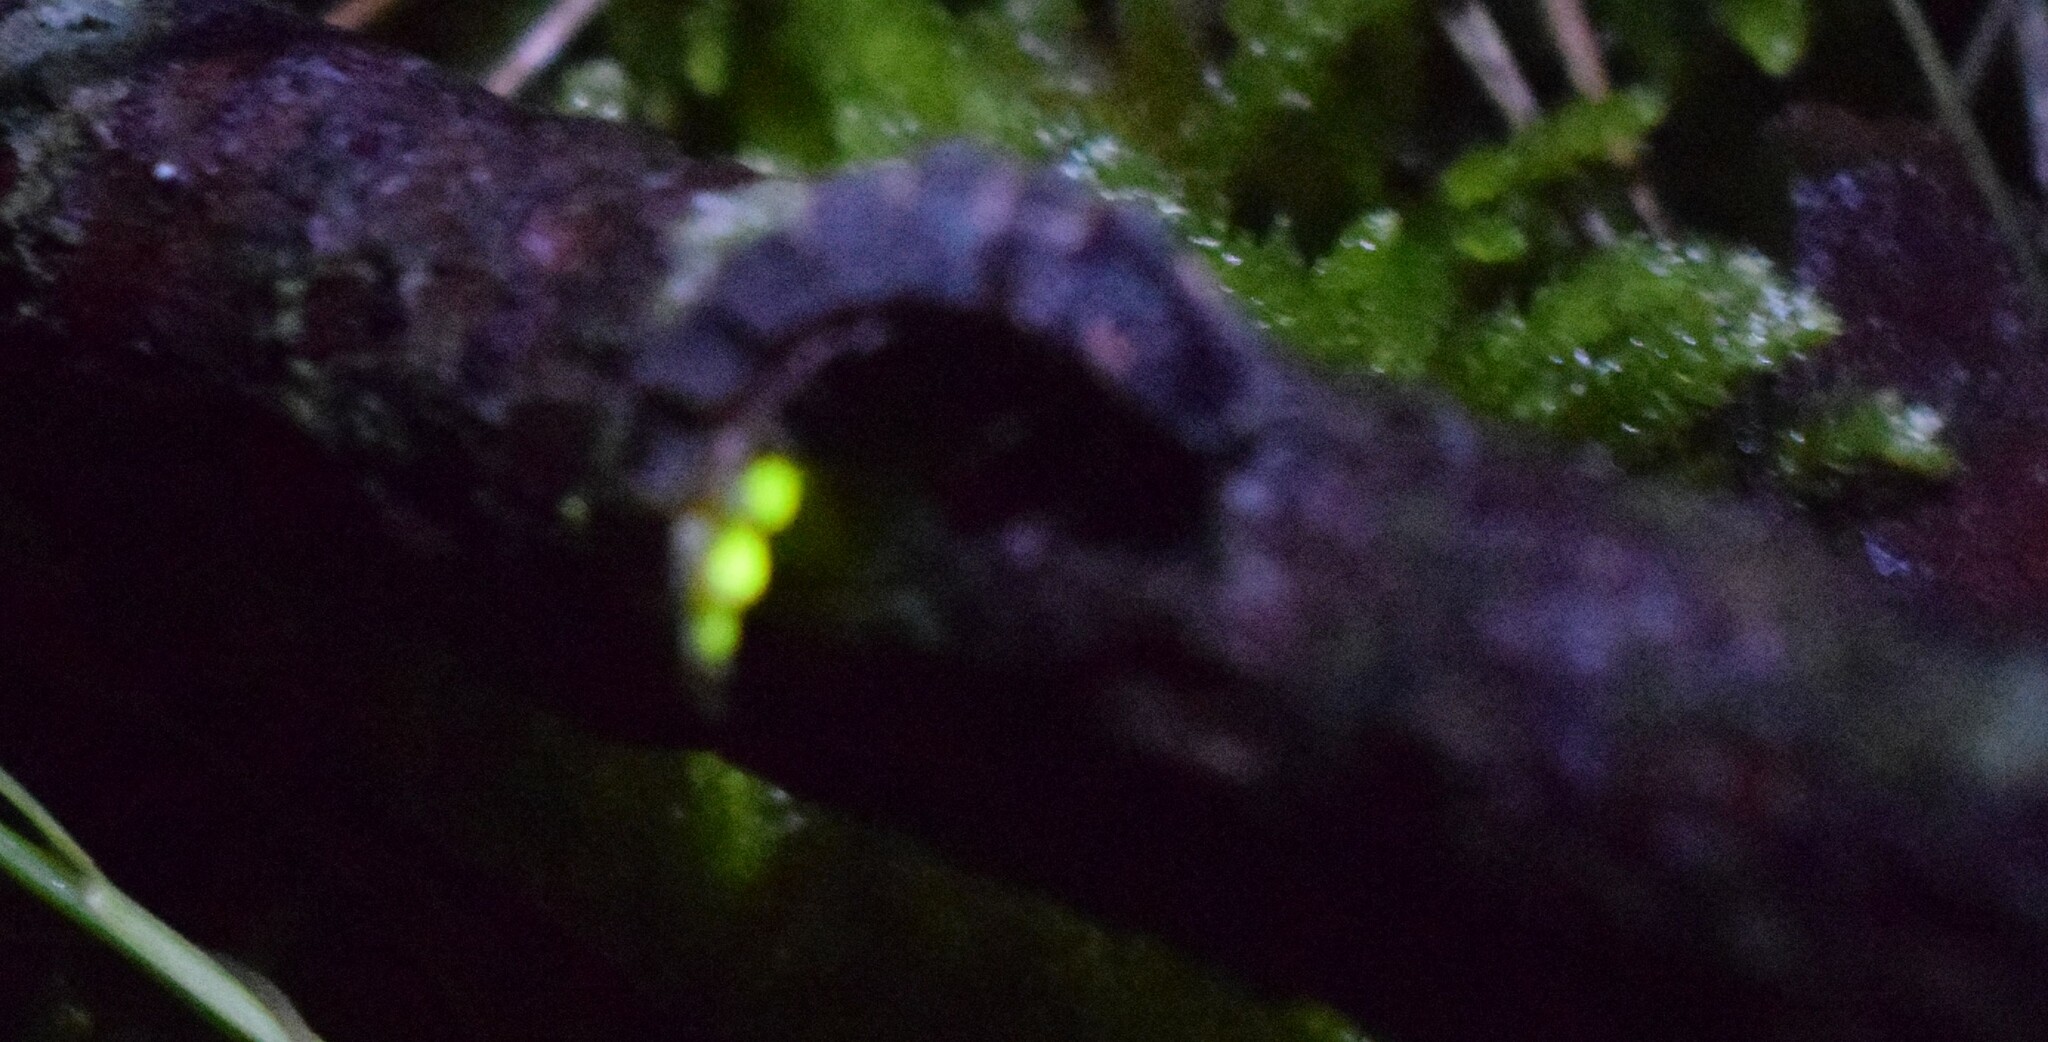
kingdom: Animalia
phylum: Arthropoda
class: Insecta
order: Coleoptera
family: Lampyridae
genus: Lampyris
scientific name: Lampyris noctiluca
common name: Glow-worm
